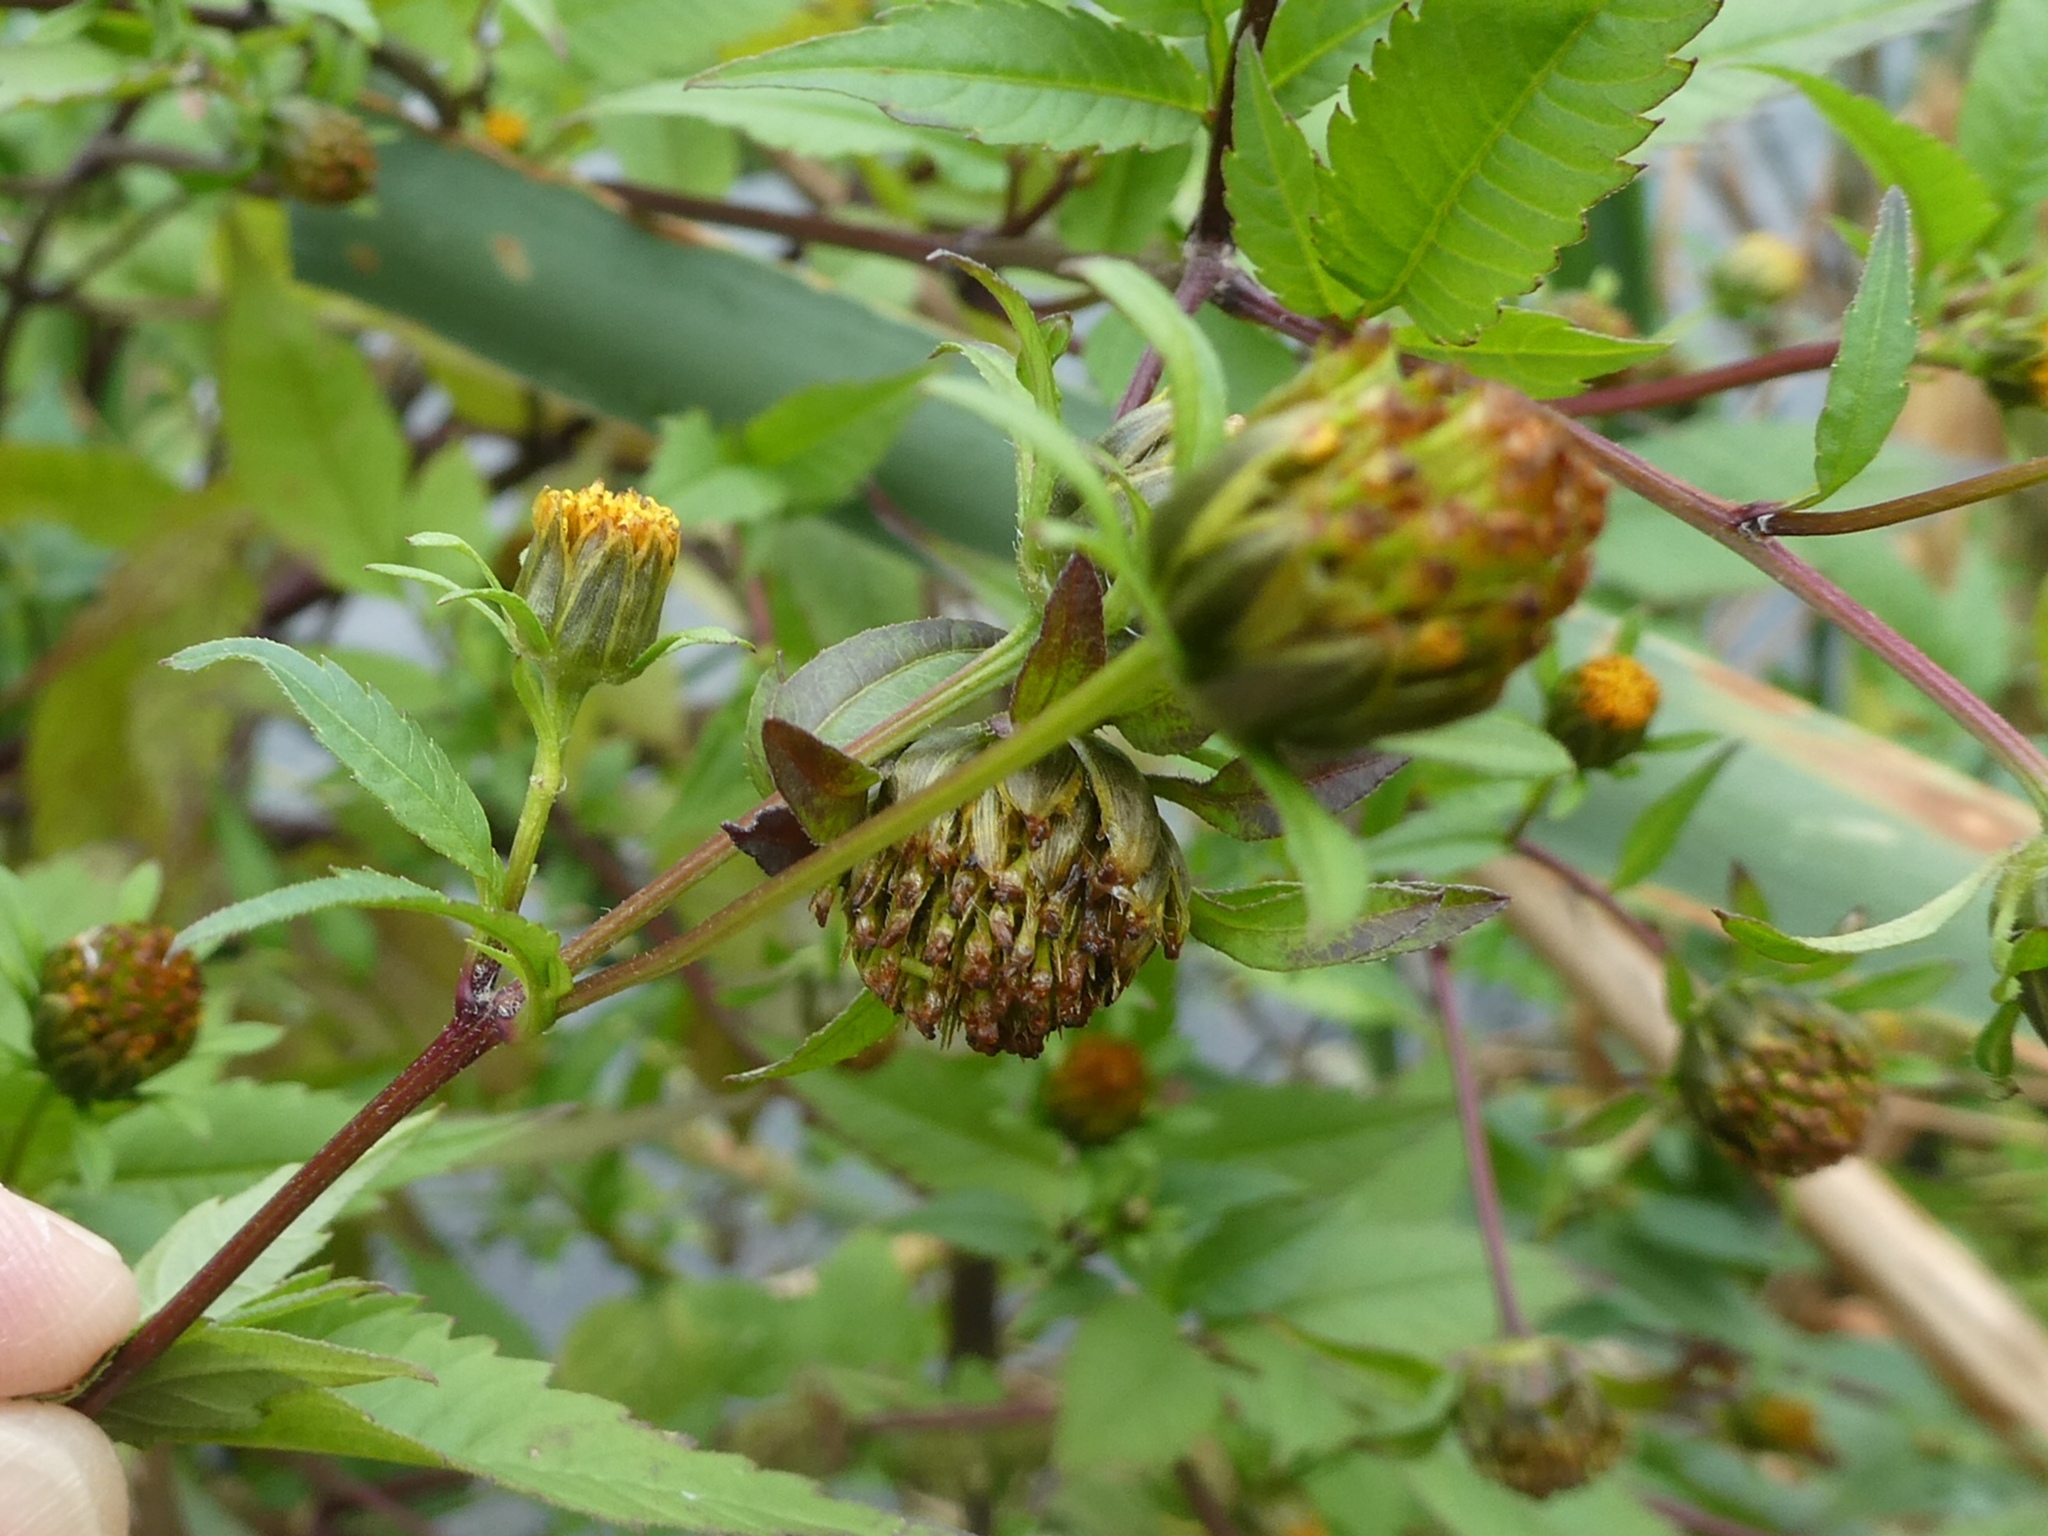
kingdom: Plantae
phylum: Tracheophyta
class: Magnoliopsida
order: Asterales
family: Asteraceae
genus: Bidens
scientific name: Bidens frondosa
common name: Beggarticks
